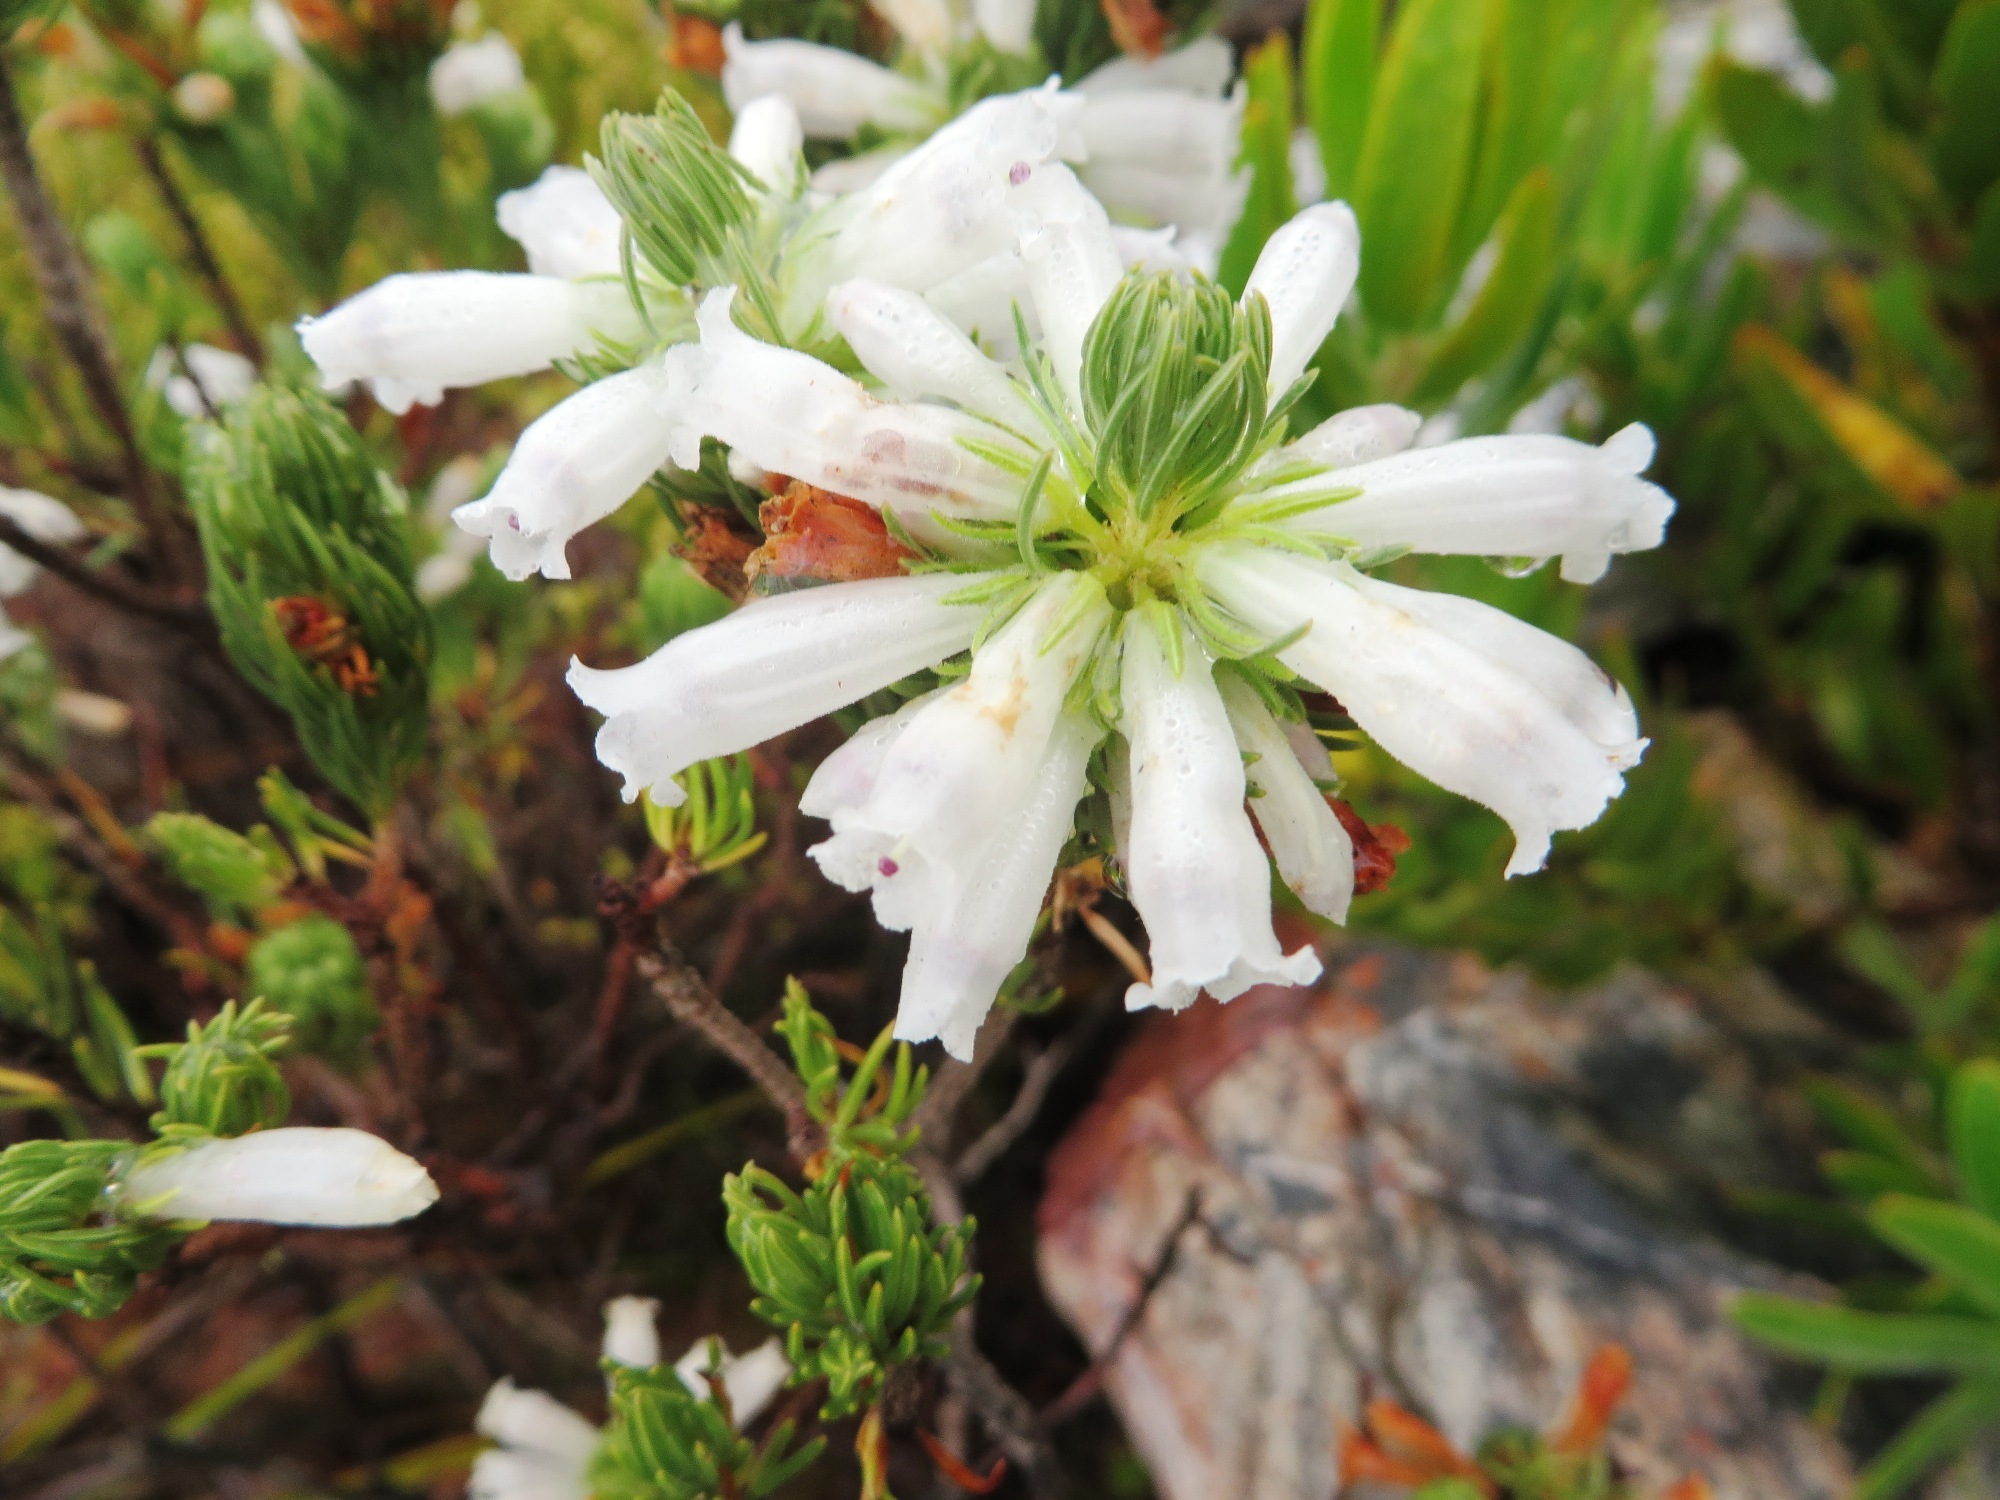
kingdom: Plantae
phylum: Tracheophyta
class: Magnoliopsida
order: Ericales
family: Ericaceae
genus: Erica
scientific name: Erica viscaria
